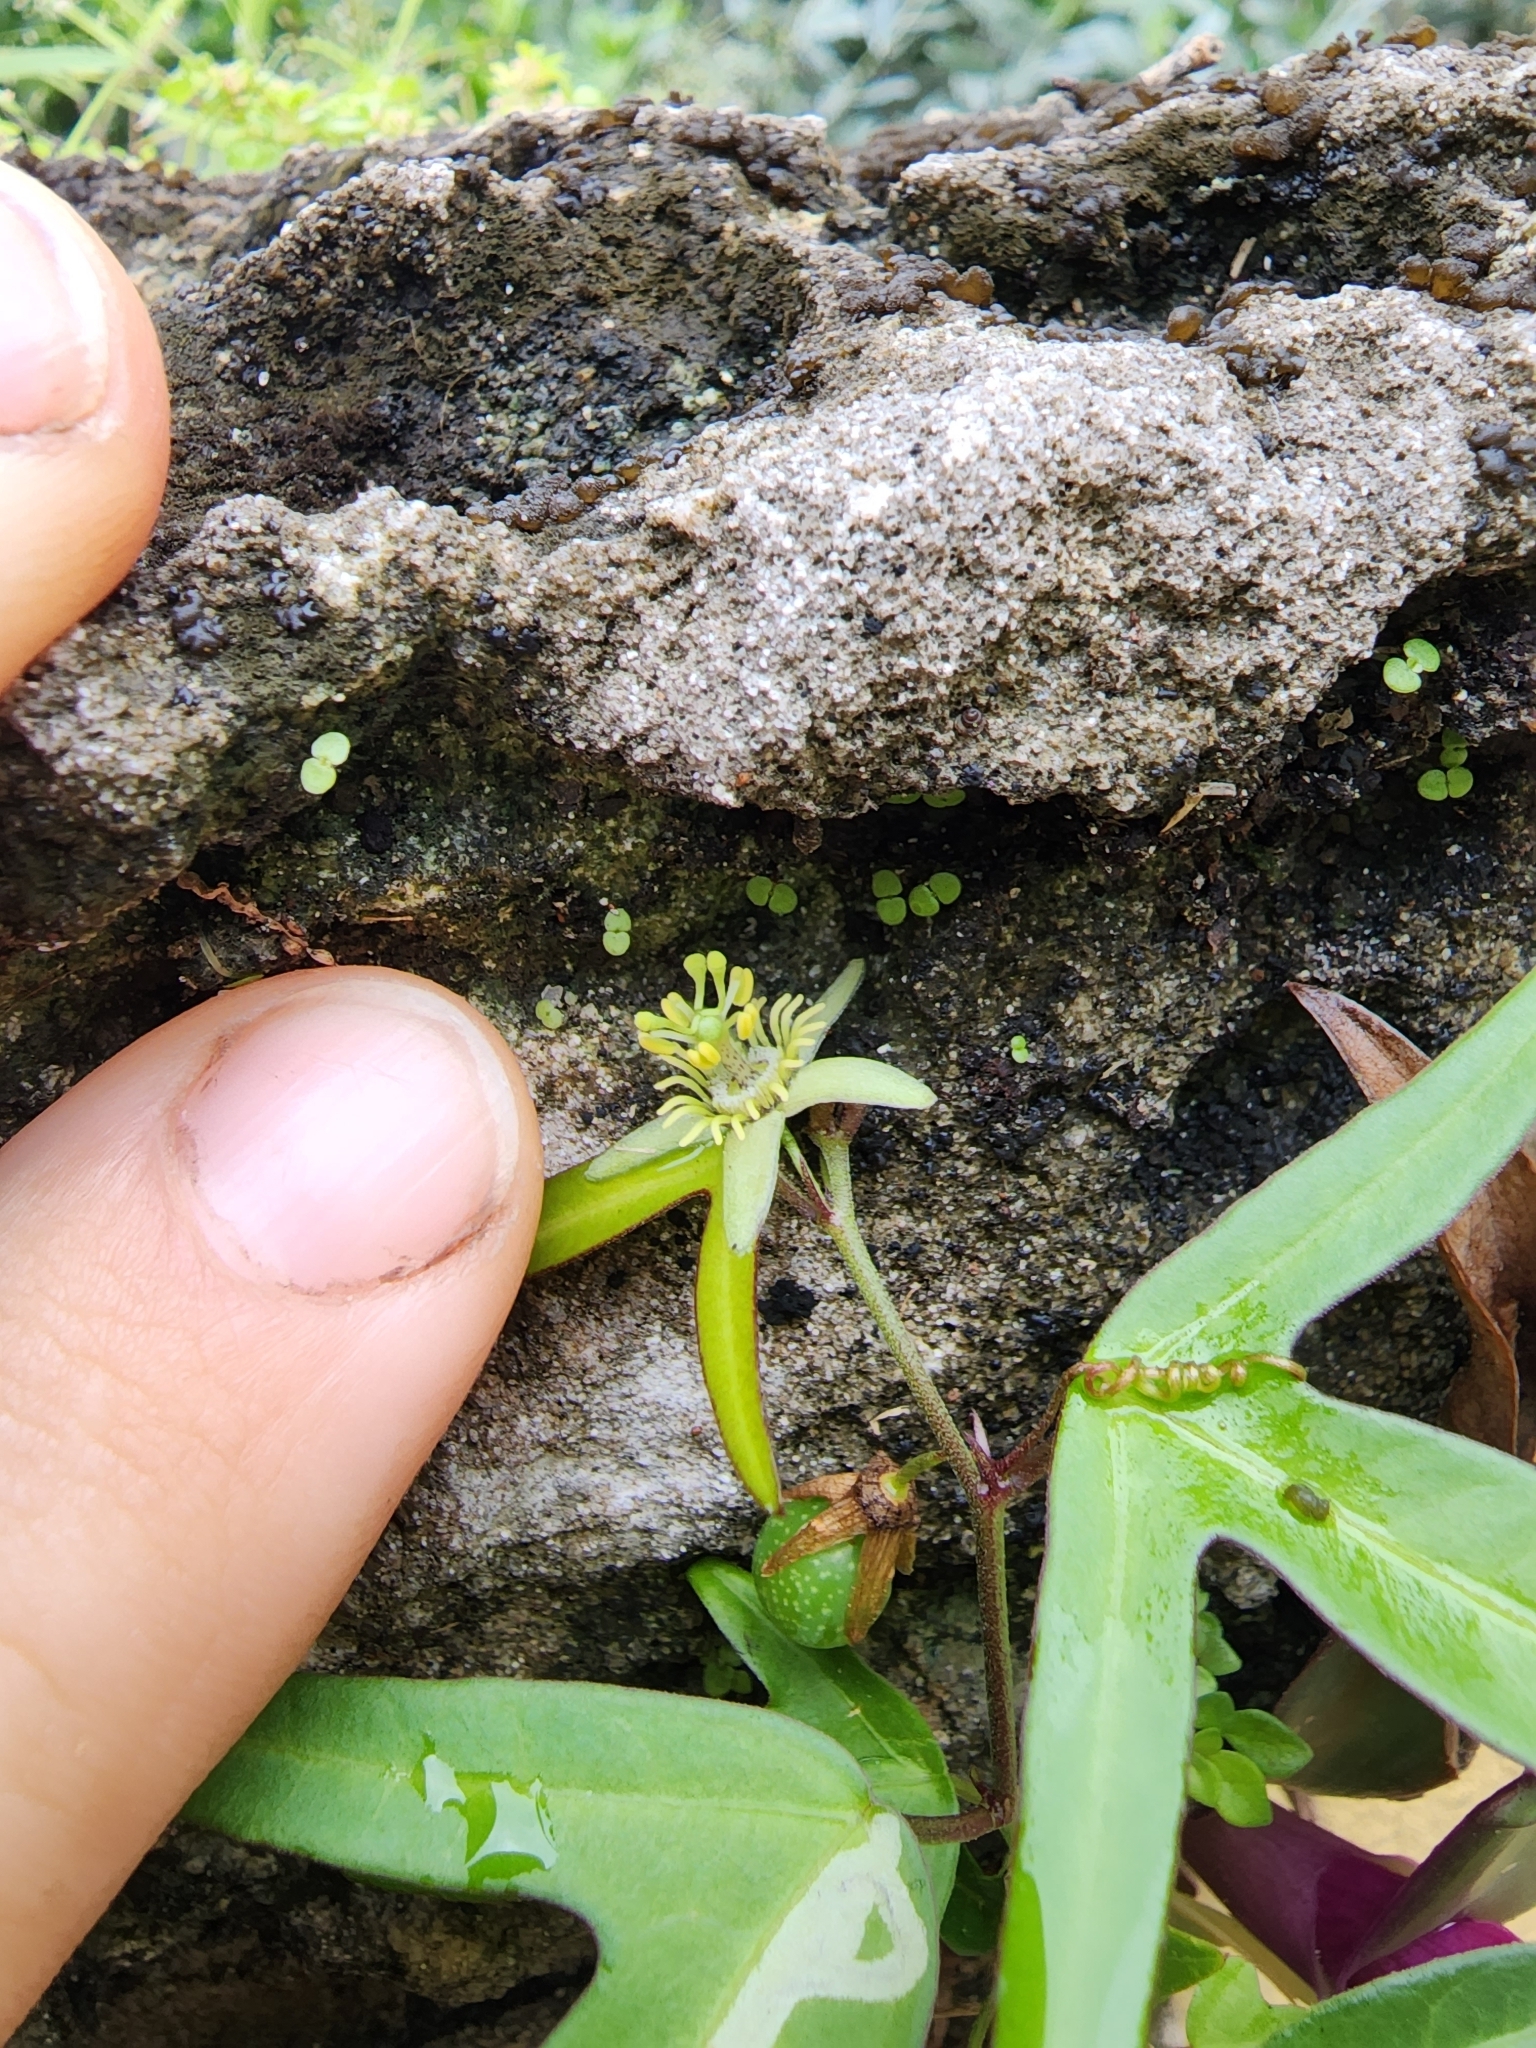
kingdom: Plantae
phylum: Tracheophyta
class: Magnoliopsida
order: Malpighiales
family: Passifloraceae
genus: Passiflora
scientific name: Passiflora pallida
